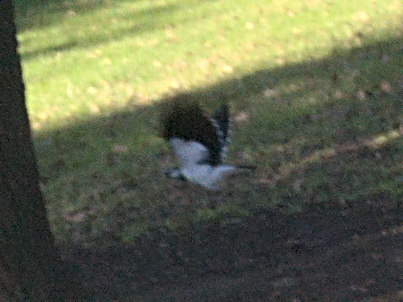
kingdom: Animalia
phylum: Chordata
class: Aves
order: Passeriformes
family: Monarchidae
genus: Grallina
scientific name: Grallina cyanoleuca
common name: Magpie-lark
